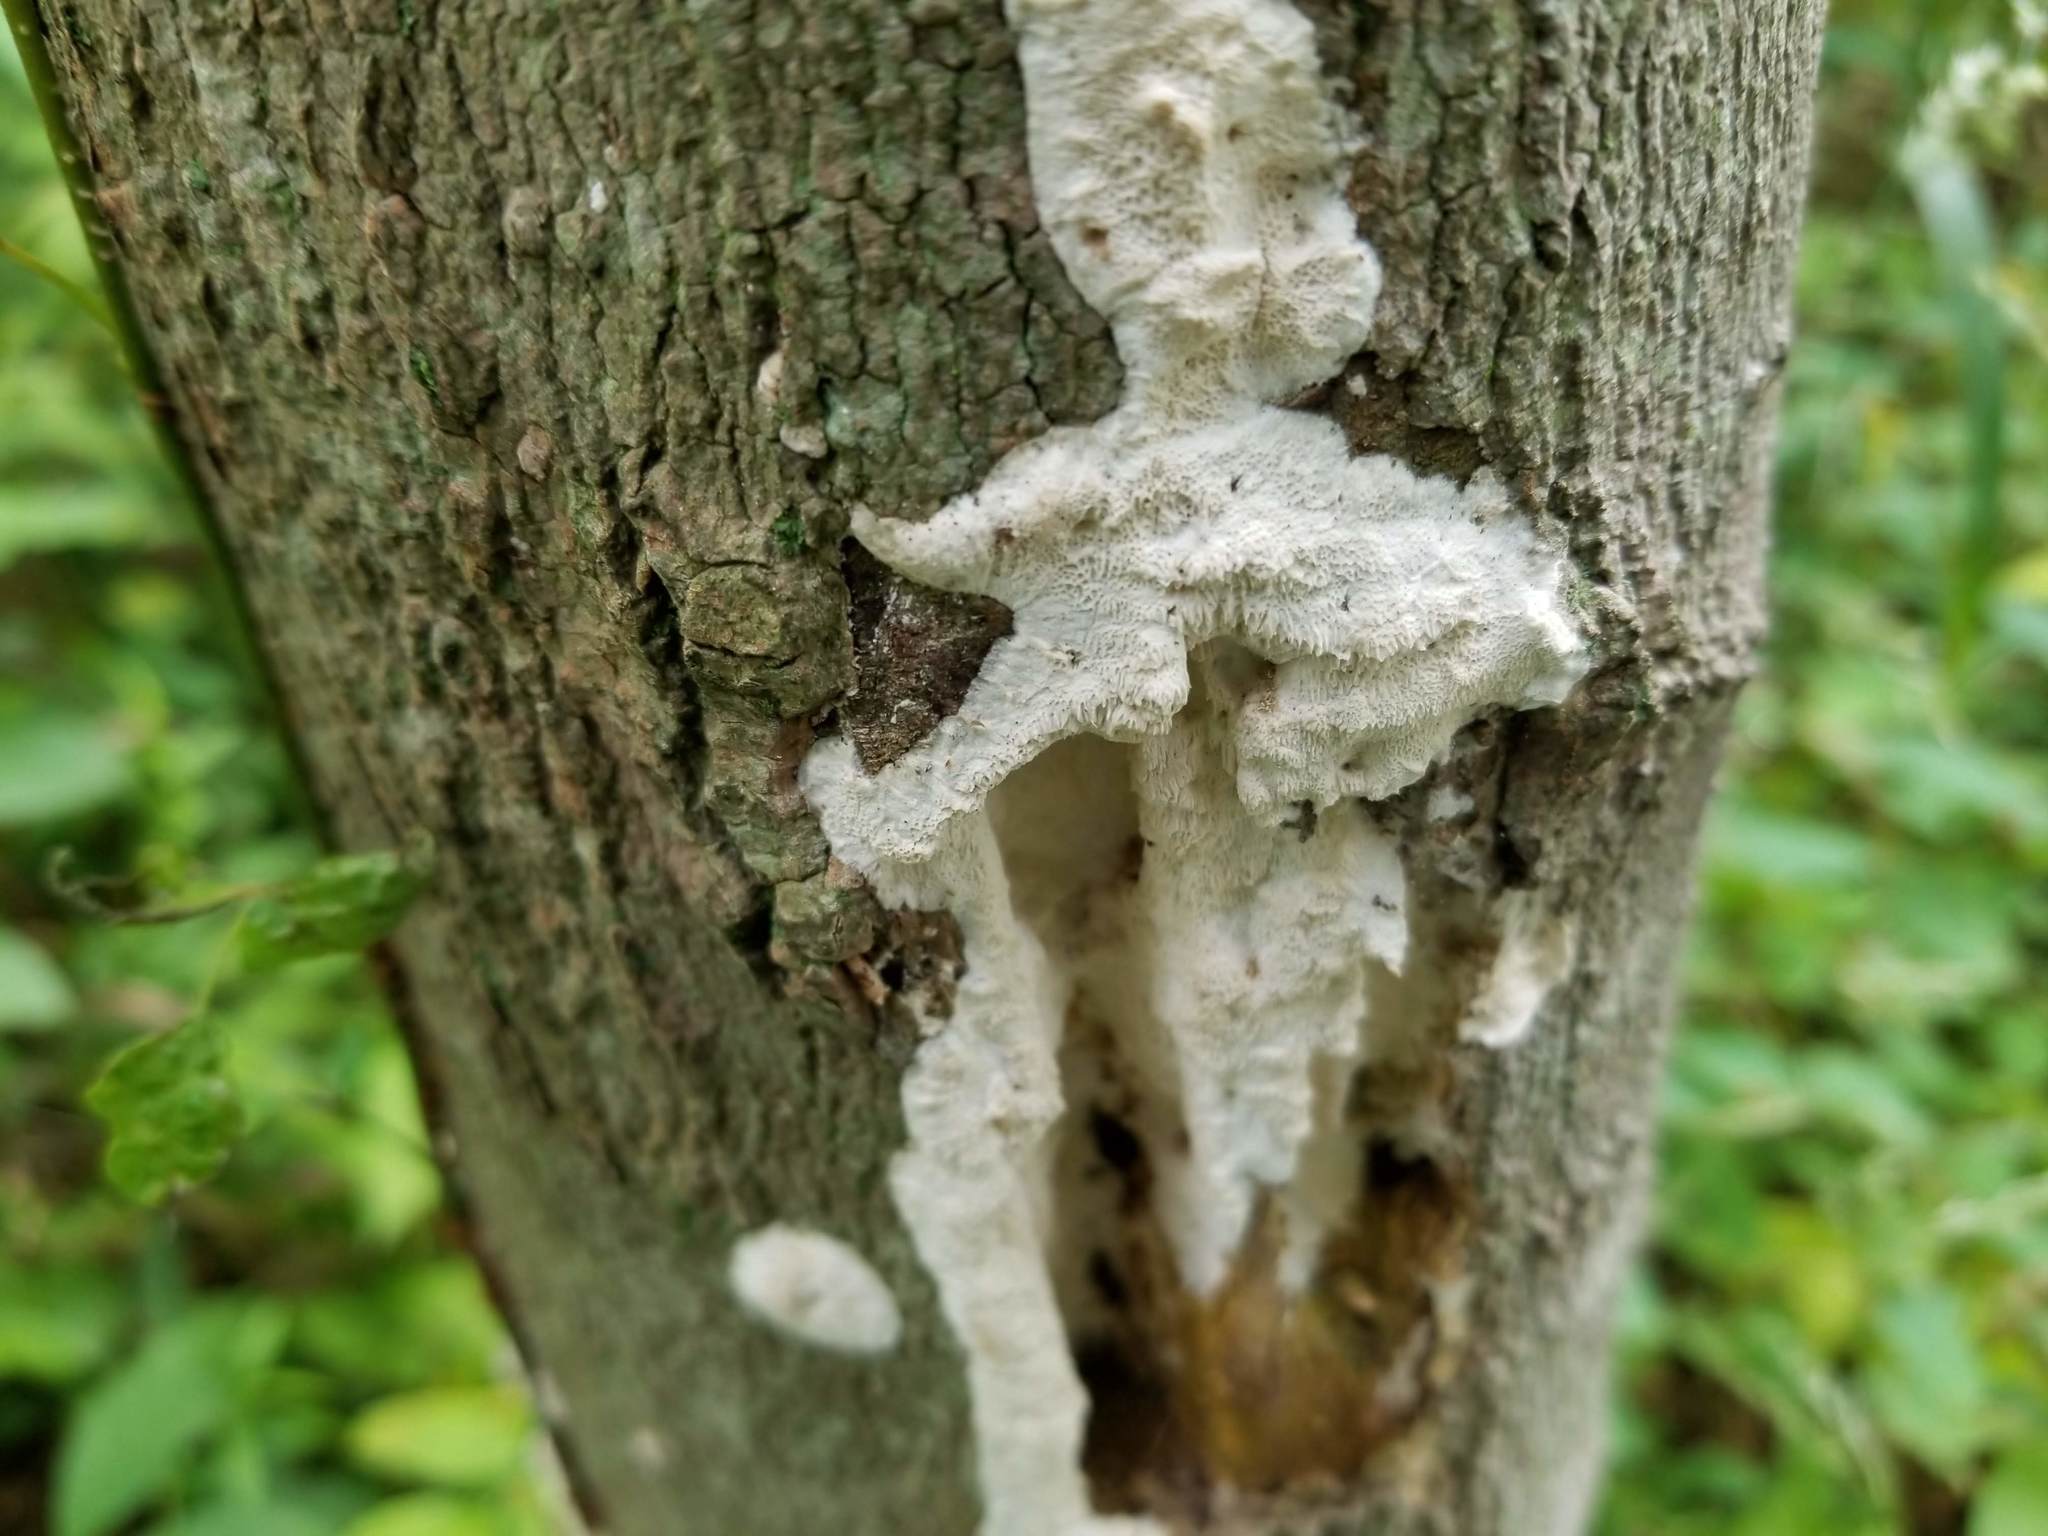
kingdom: Fungi
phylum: Basidiomycota
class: Agaricomycetes
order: Polyporales
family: Irpicaceae
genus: Irpex
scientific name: Irpex lacteus
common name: Milk-white toothed polypore
